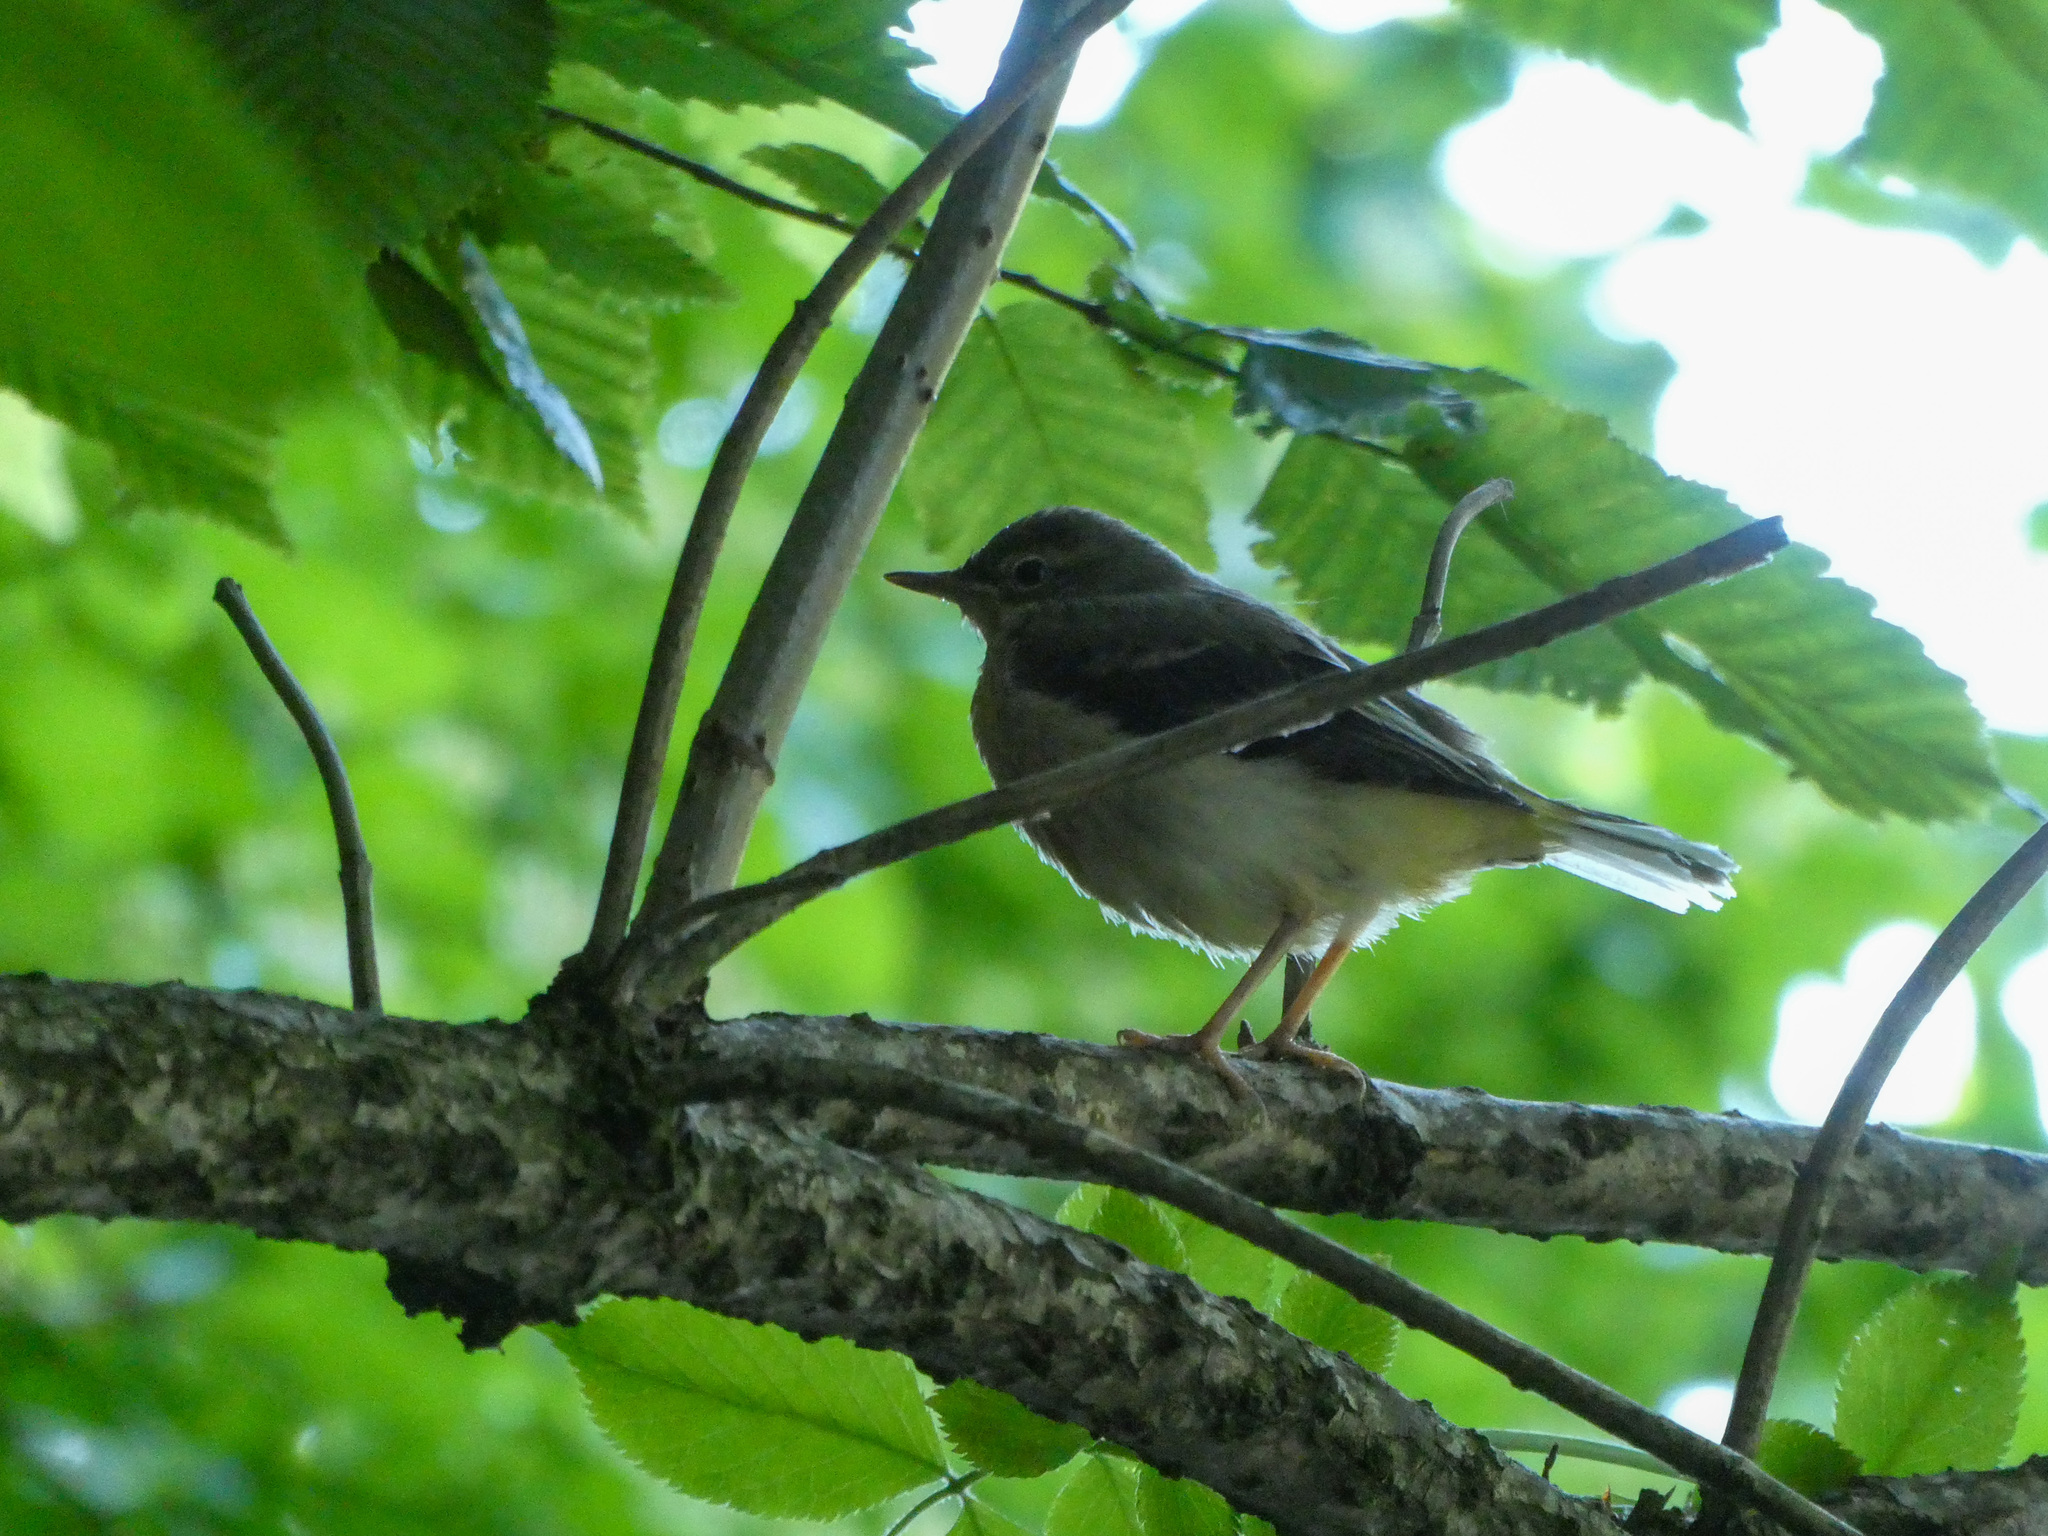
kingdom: Animalia
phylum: Chordata
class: Aves
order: Passeriformes
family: Motacillidae
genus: Motacilla
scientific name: Motacilla cinerea
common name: Grey wagtail
